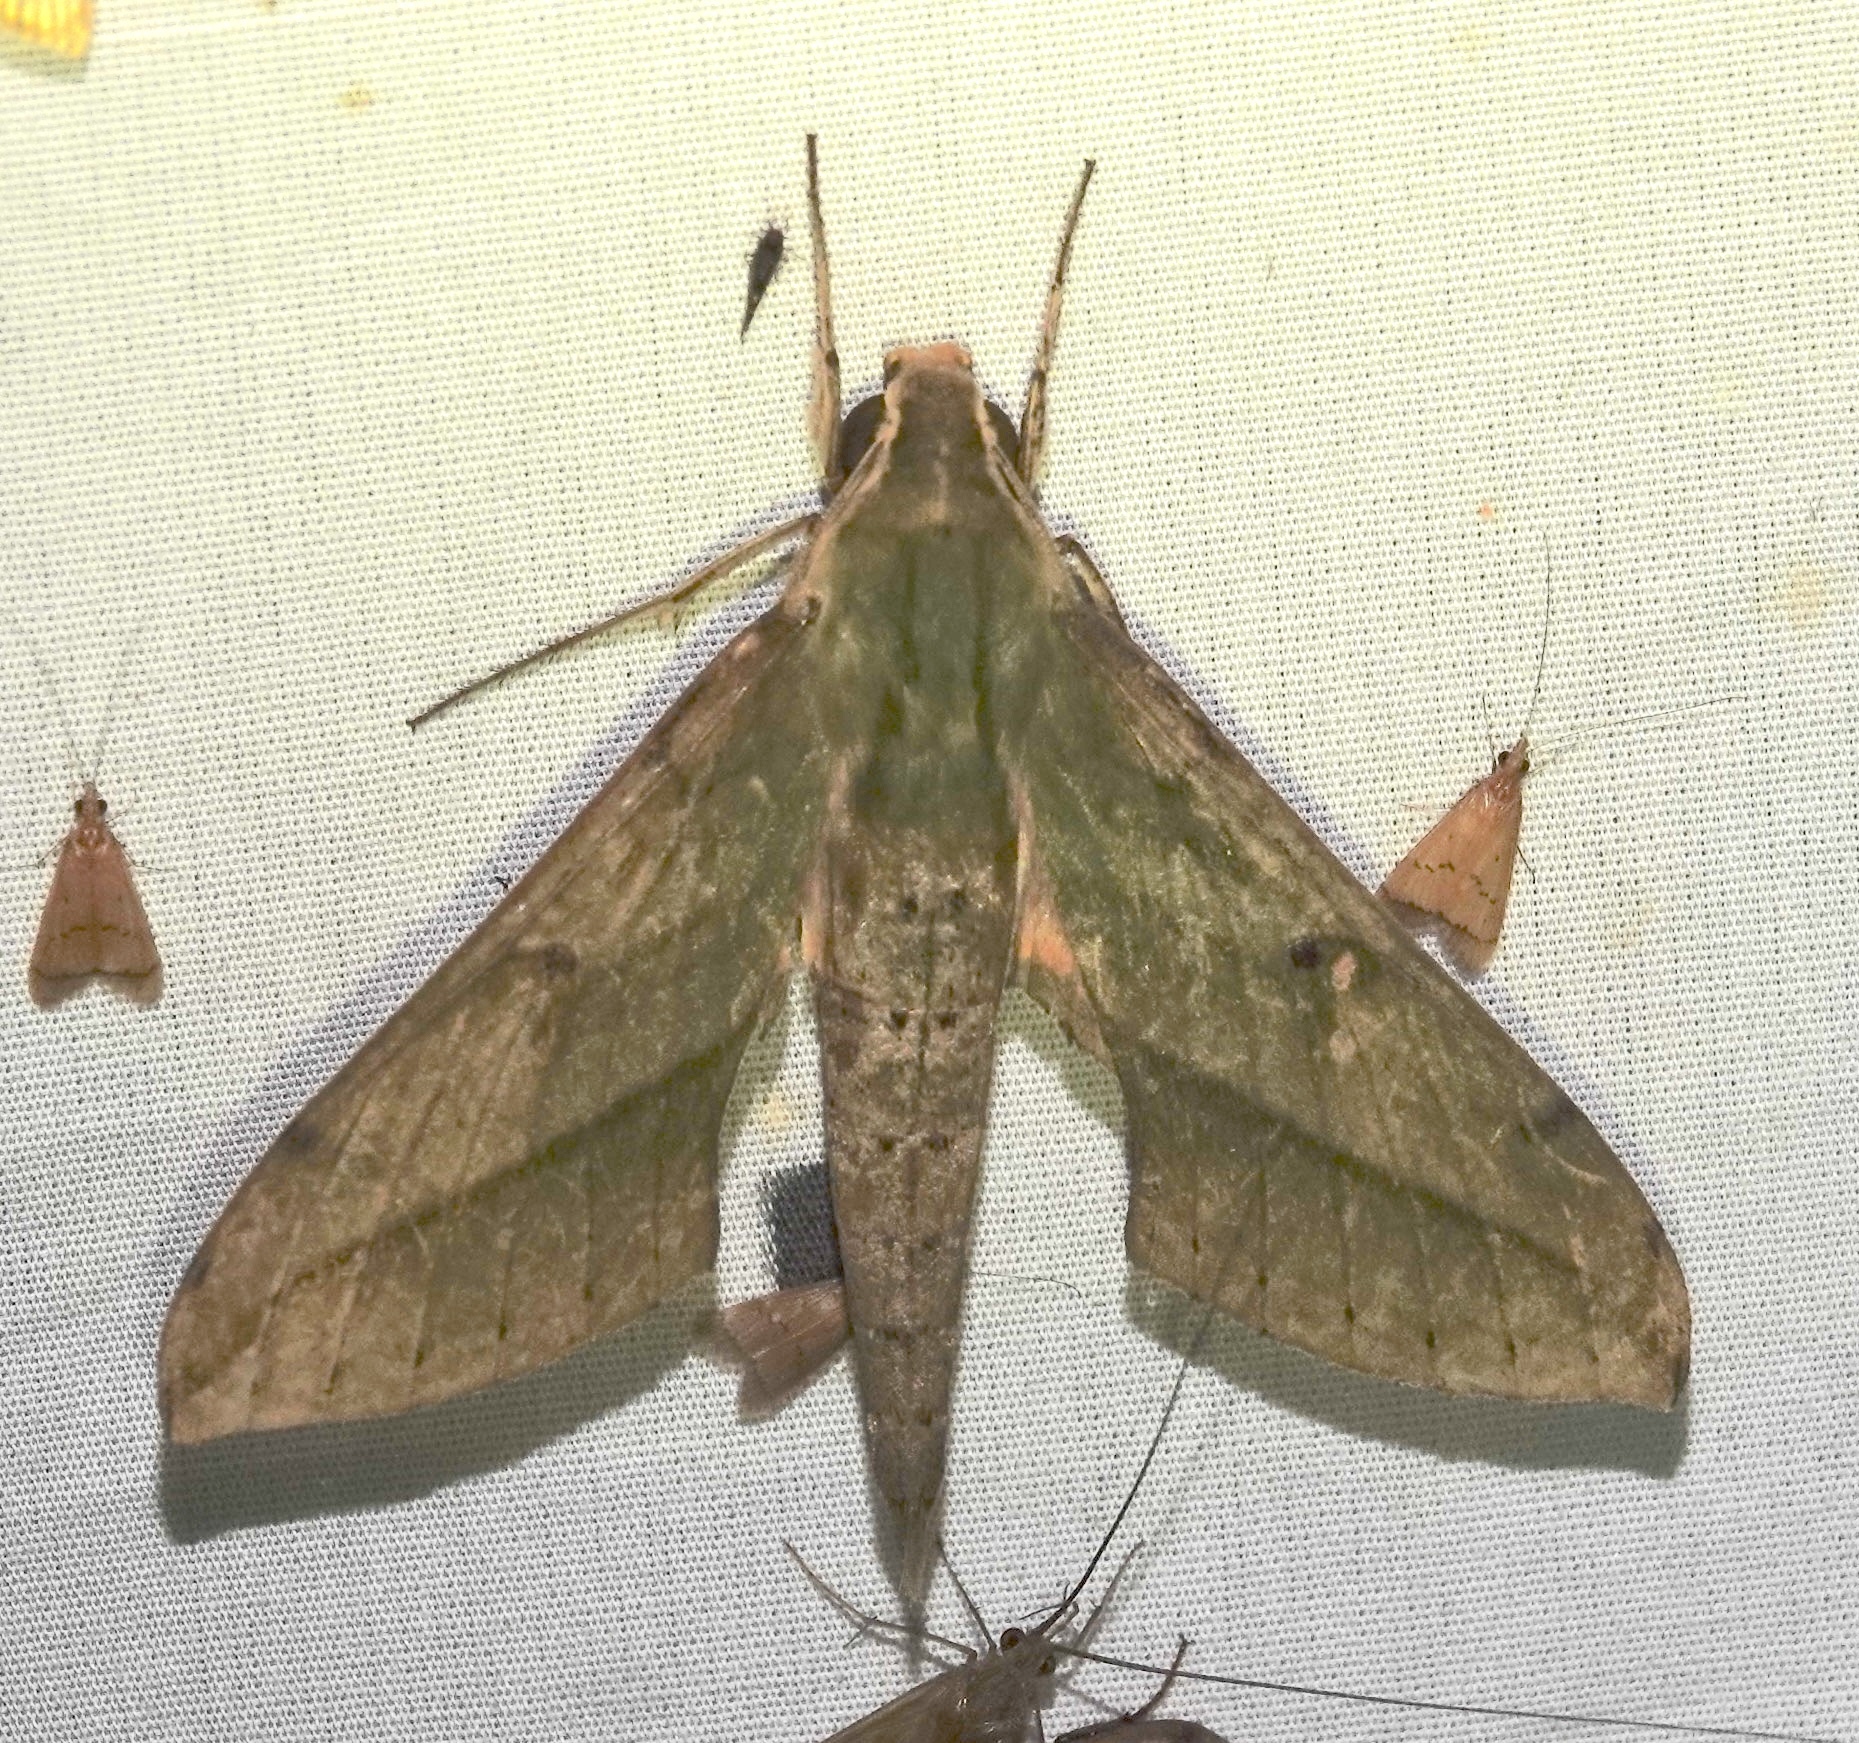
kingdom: Animalia
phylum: Arthropoda
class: Insecta
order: Lepidoptera
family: Sphingidae
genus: Xylophanes
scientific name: Xylophanes fassli
